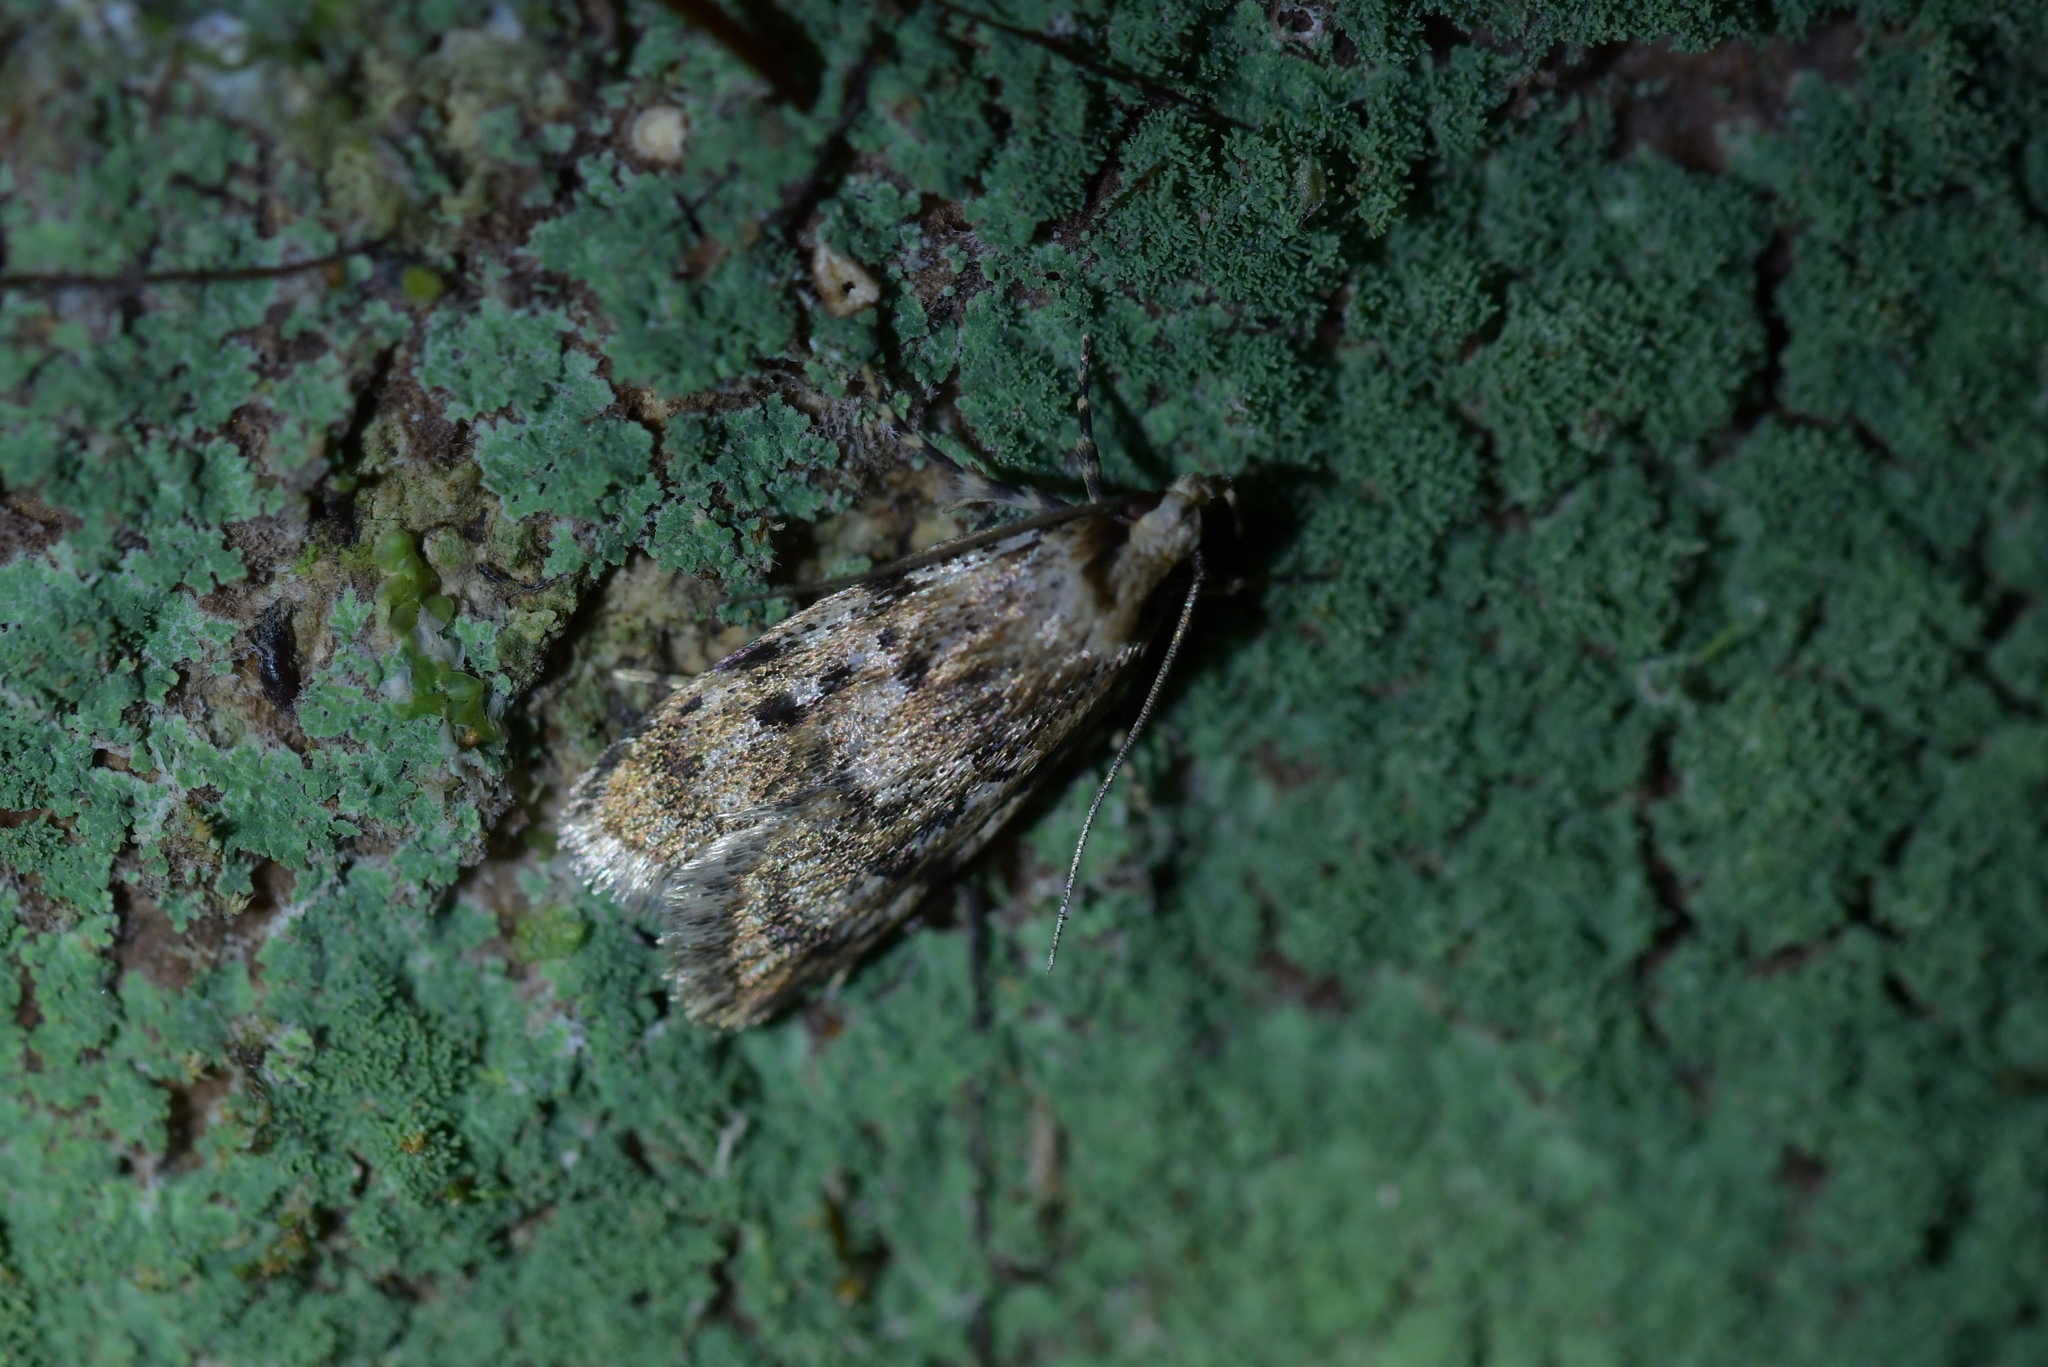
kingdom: Animalia
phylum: Arthropoda
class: Insecta
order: Lepidoptera
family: Oecophoridae
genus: Barea
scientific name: Barea exarcha
